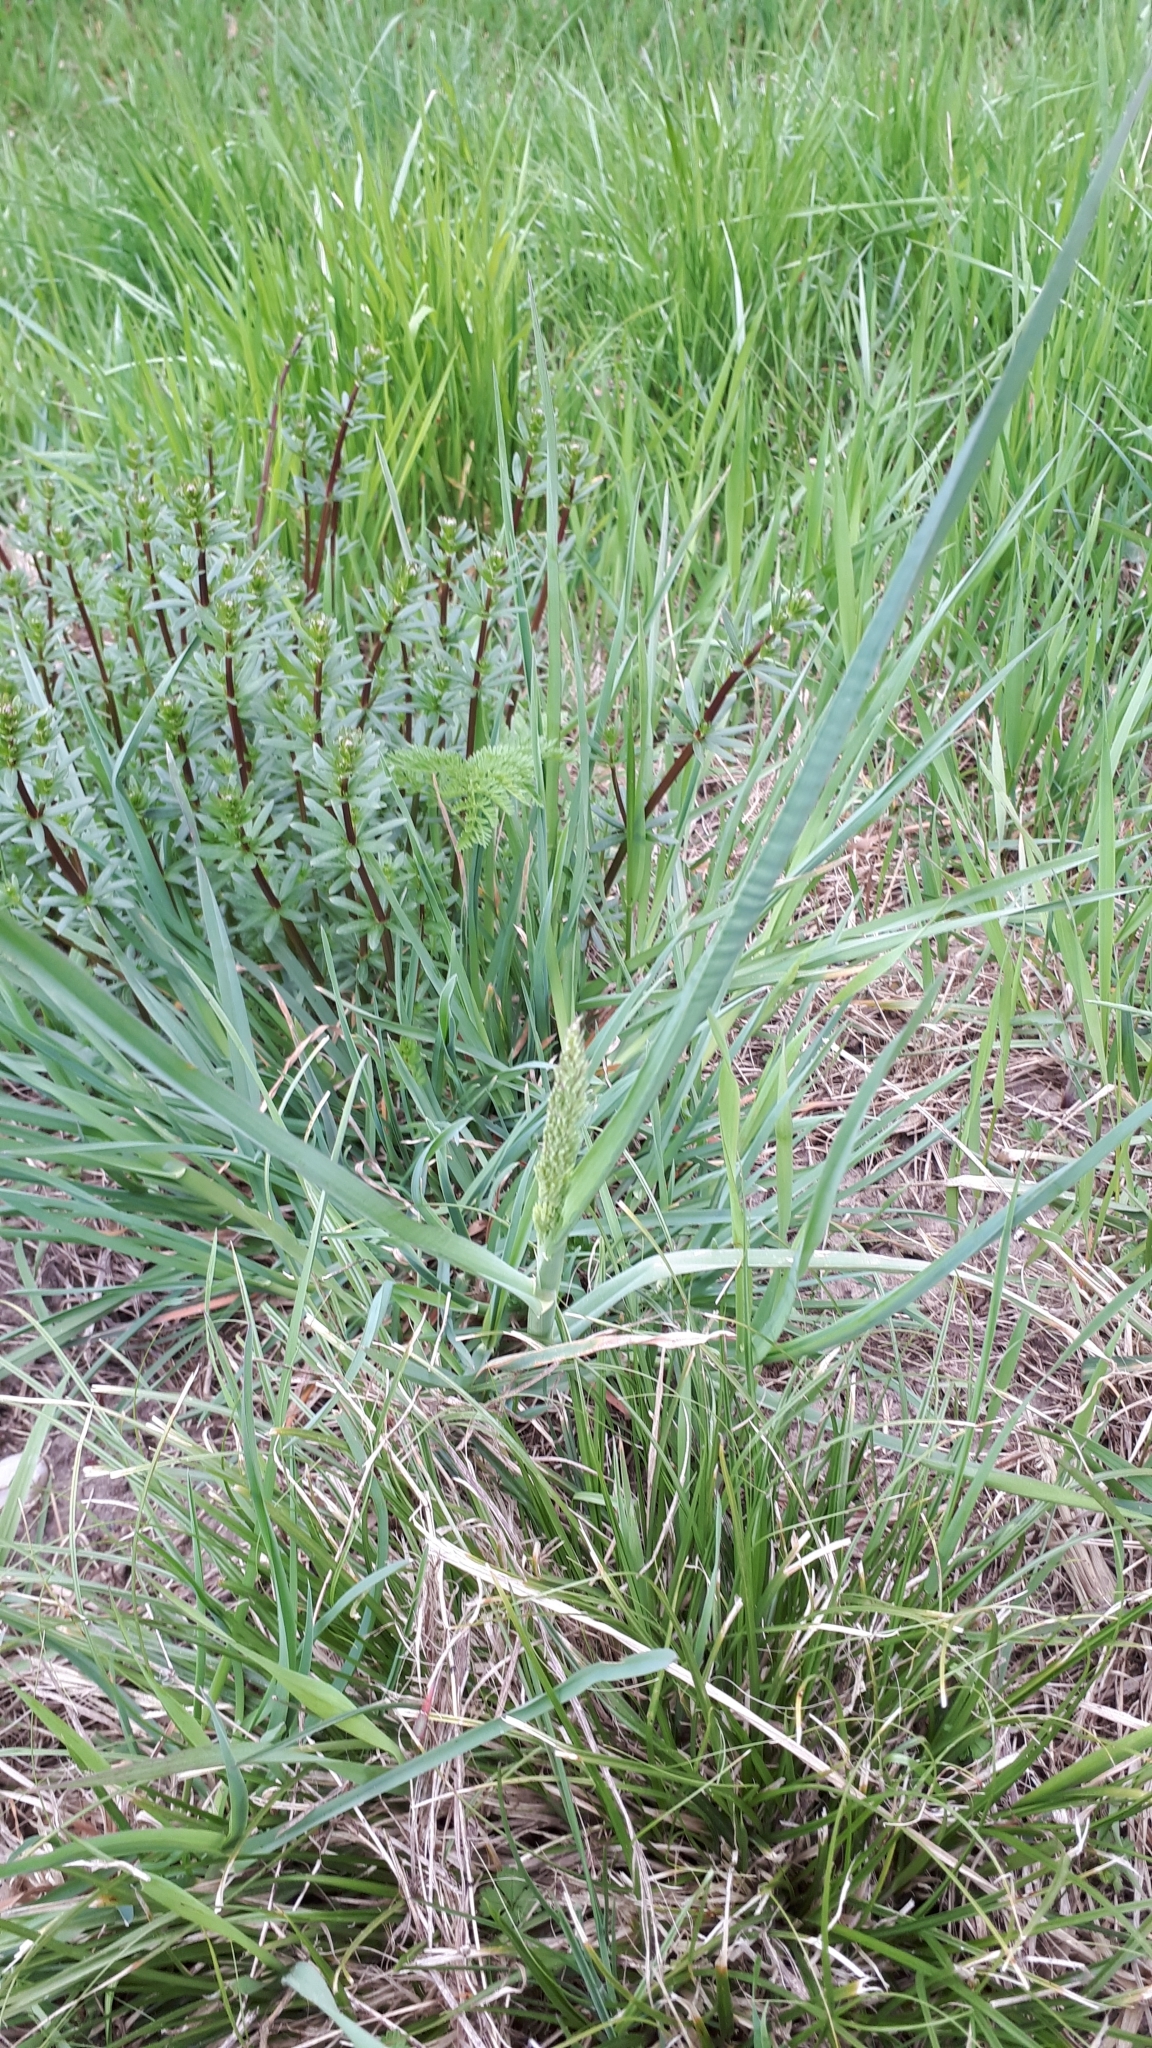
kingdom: Plantae
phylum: Tracheophyta
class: Liliopsida
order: Poales
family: Poaceae
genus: Dactylis
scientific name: Dactylis glomerata
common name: Orchardgrass
